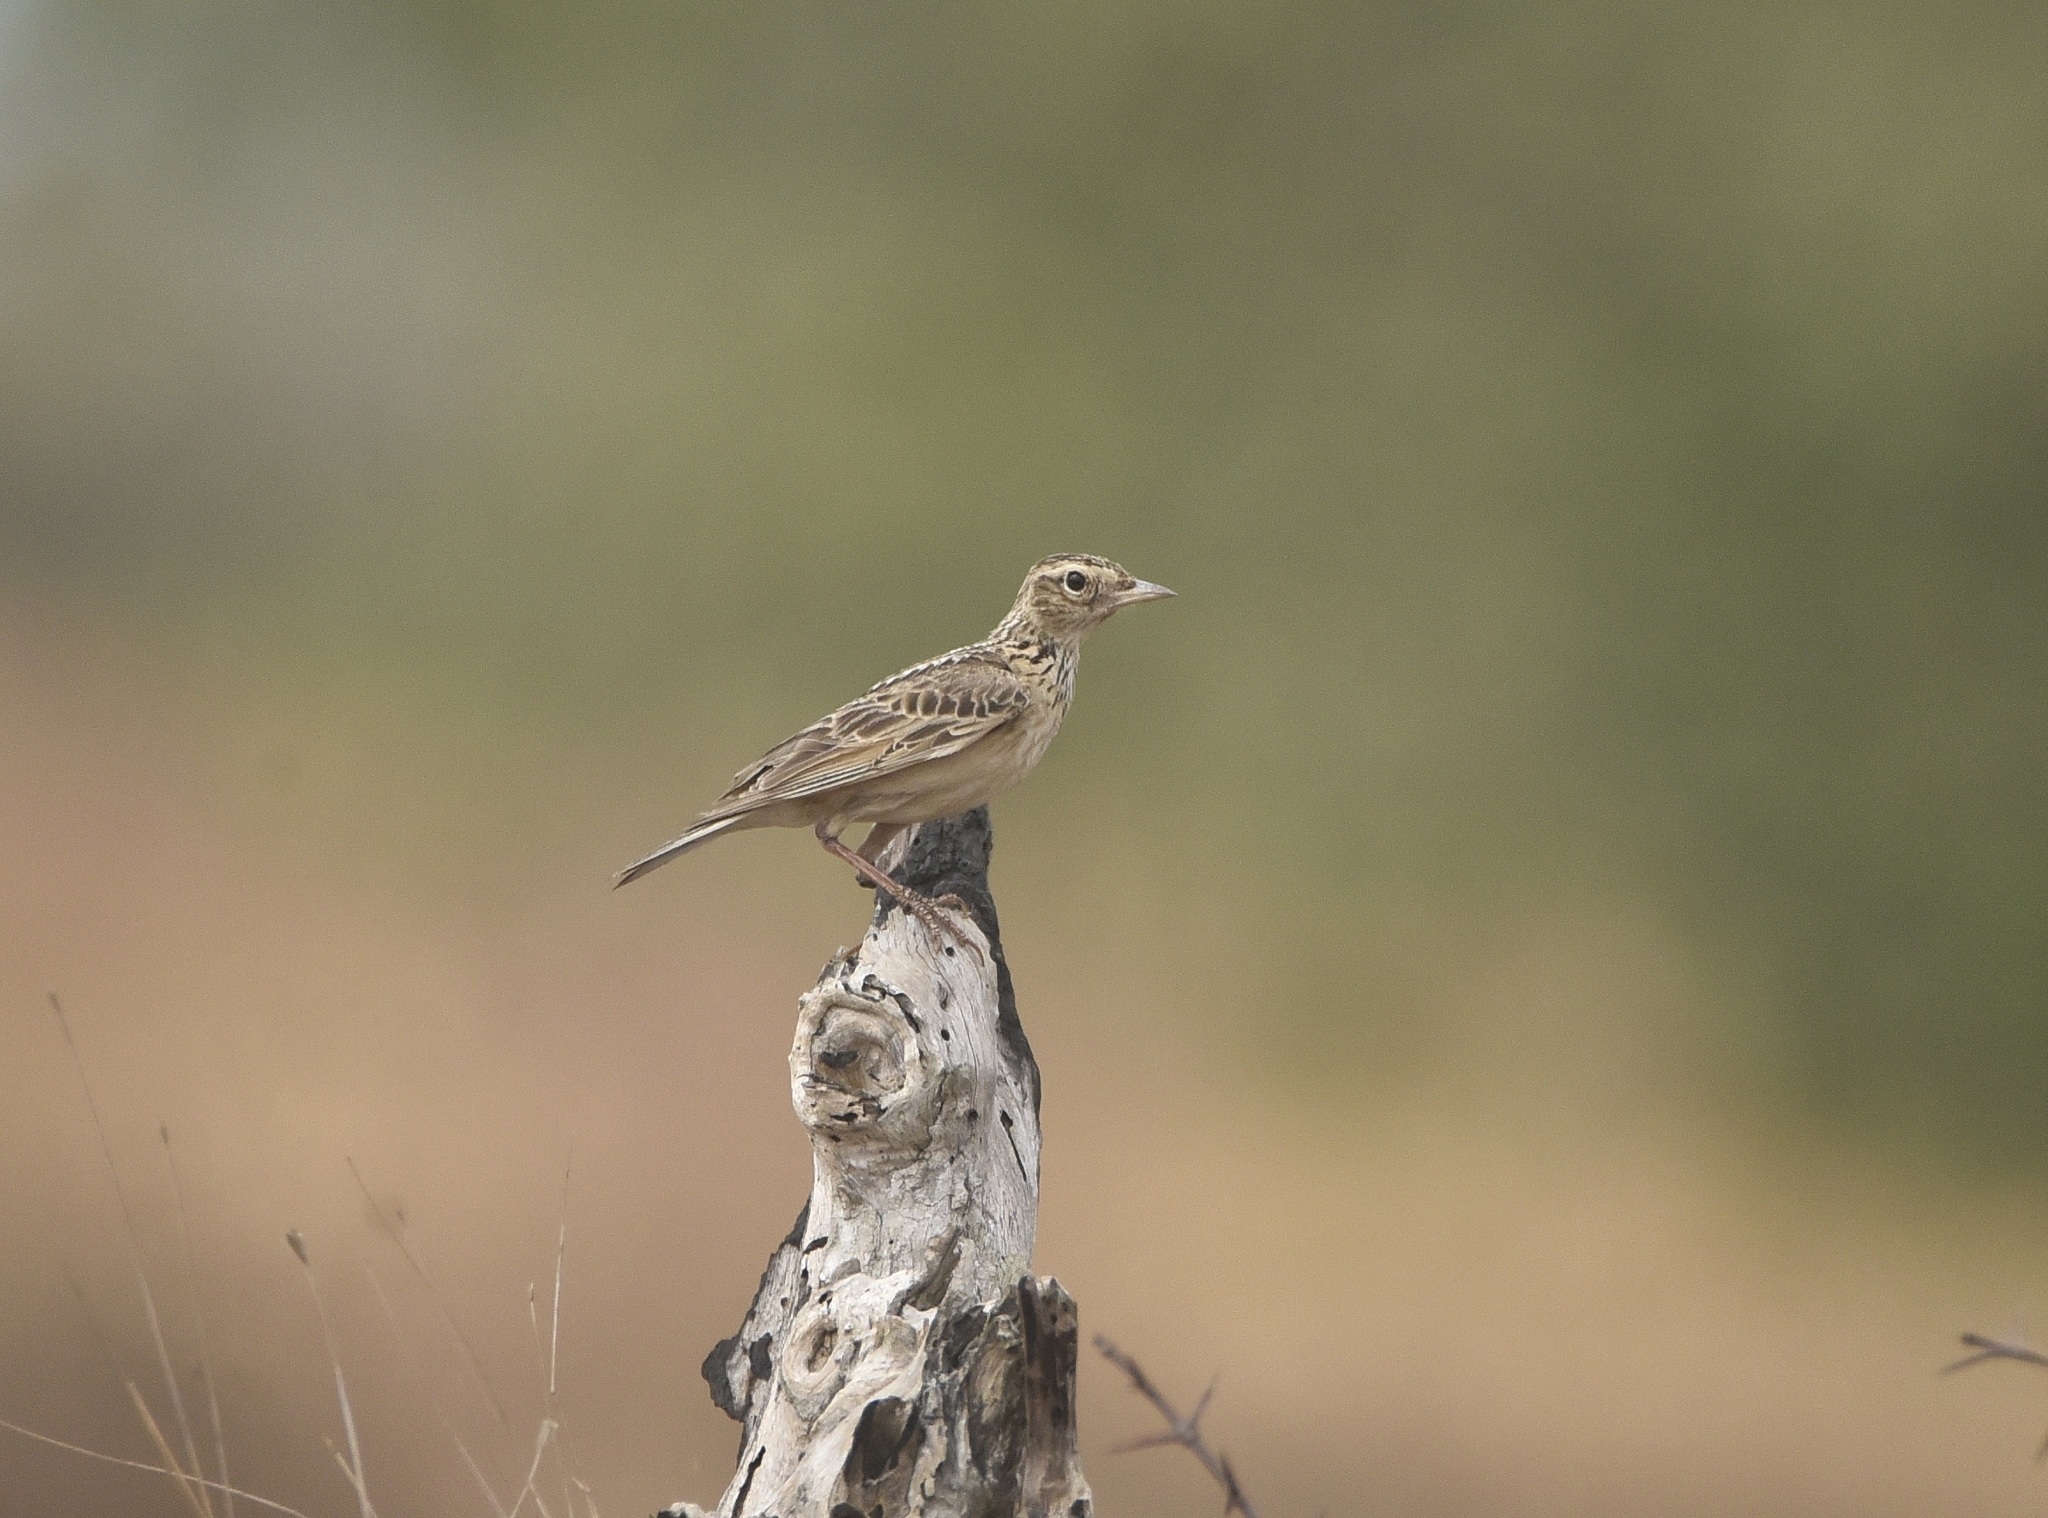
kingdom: Animalia
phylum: Chordata
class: Aves
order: Passeriformes
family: Alaudidae
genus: Alauda
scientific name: Alauda gulgula
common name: Oriental skylark
